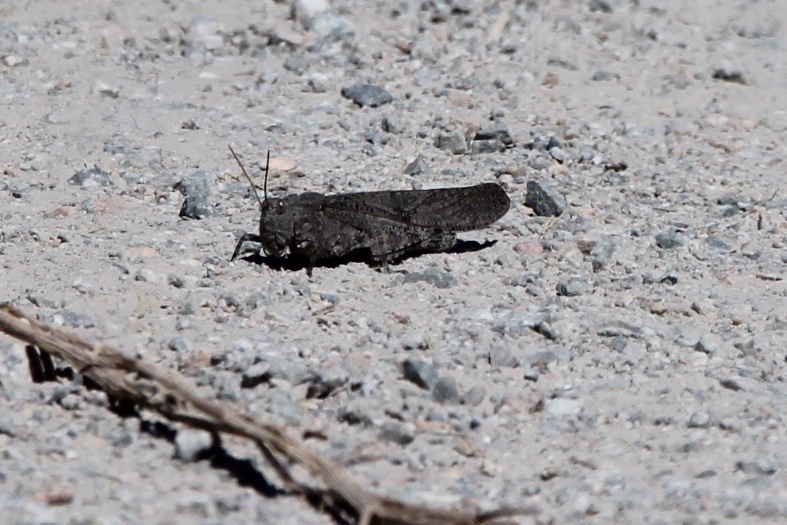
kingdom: Animalia
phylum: Arthropoda
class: Insecta
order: Orthoptera
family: Acrididae
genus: Dissosteira
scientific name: Dissosteira carolina
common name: Carolina grasshopper
